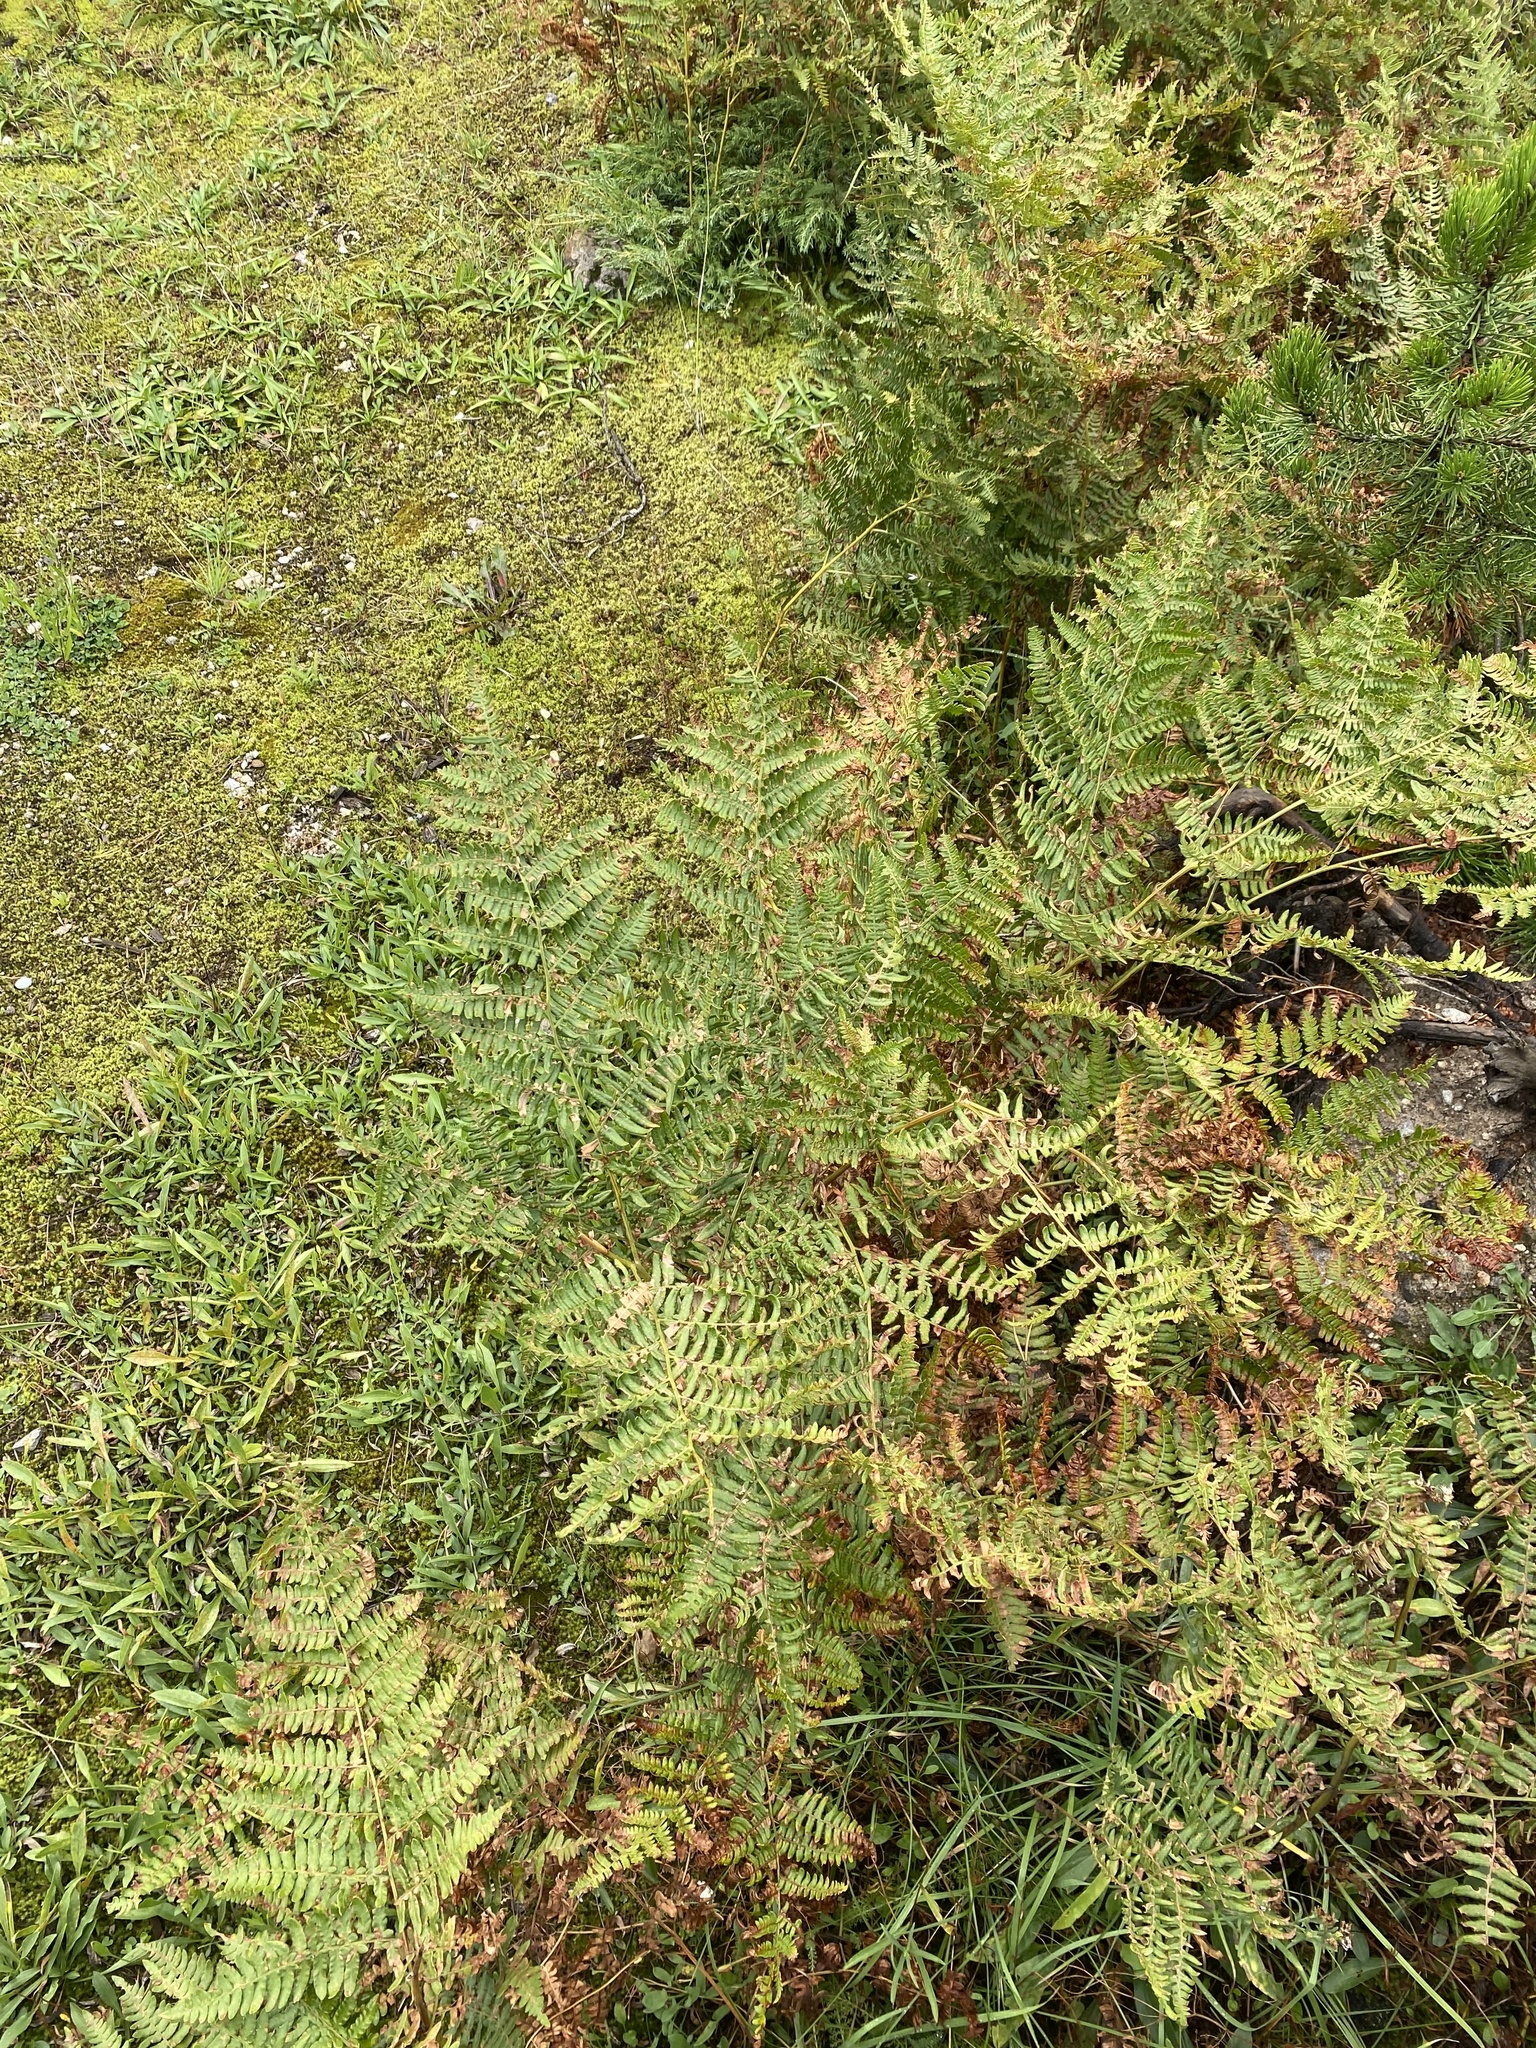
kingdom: Plantae
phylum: Tracheophyta
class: Polypodiopsida
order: Polypodiales
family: Dennstaedtiaceae
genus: Pteridium
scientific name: Pteridium aquilinum
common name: Bracken
